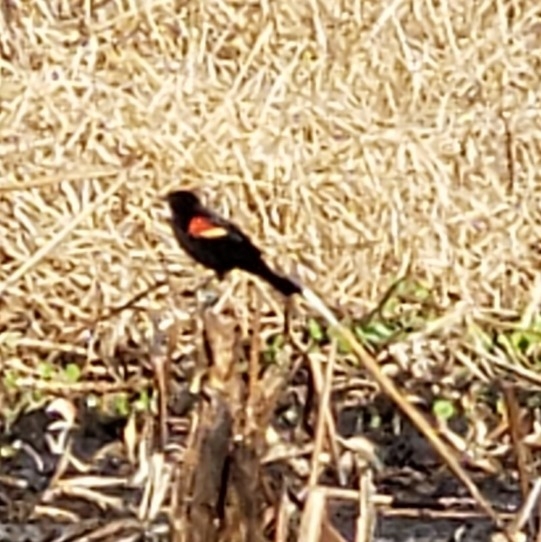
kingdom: Animalia
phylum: Chordata
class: Aves
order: Passeriformes
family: Icteridae
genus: Agelaius
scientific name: Agelaius phoeniceus
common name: Red-winged blackbird
